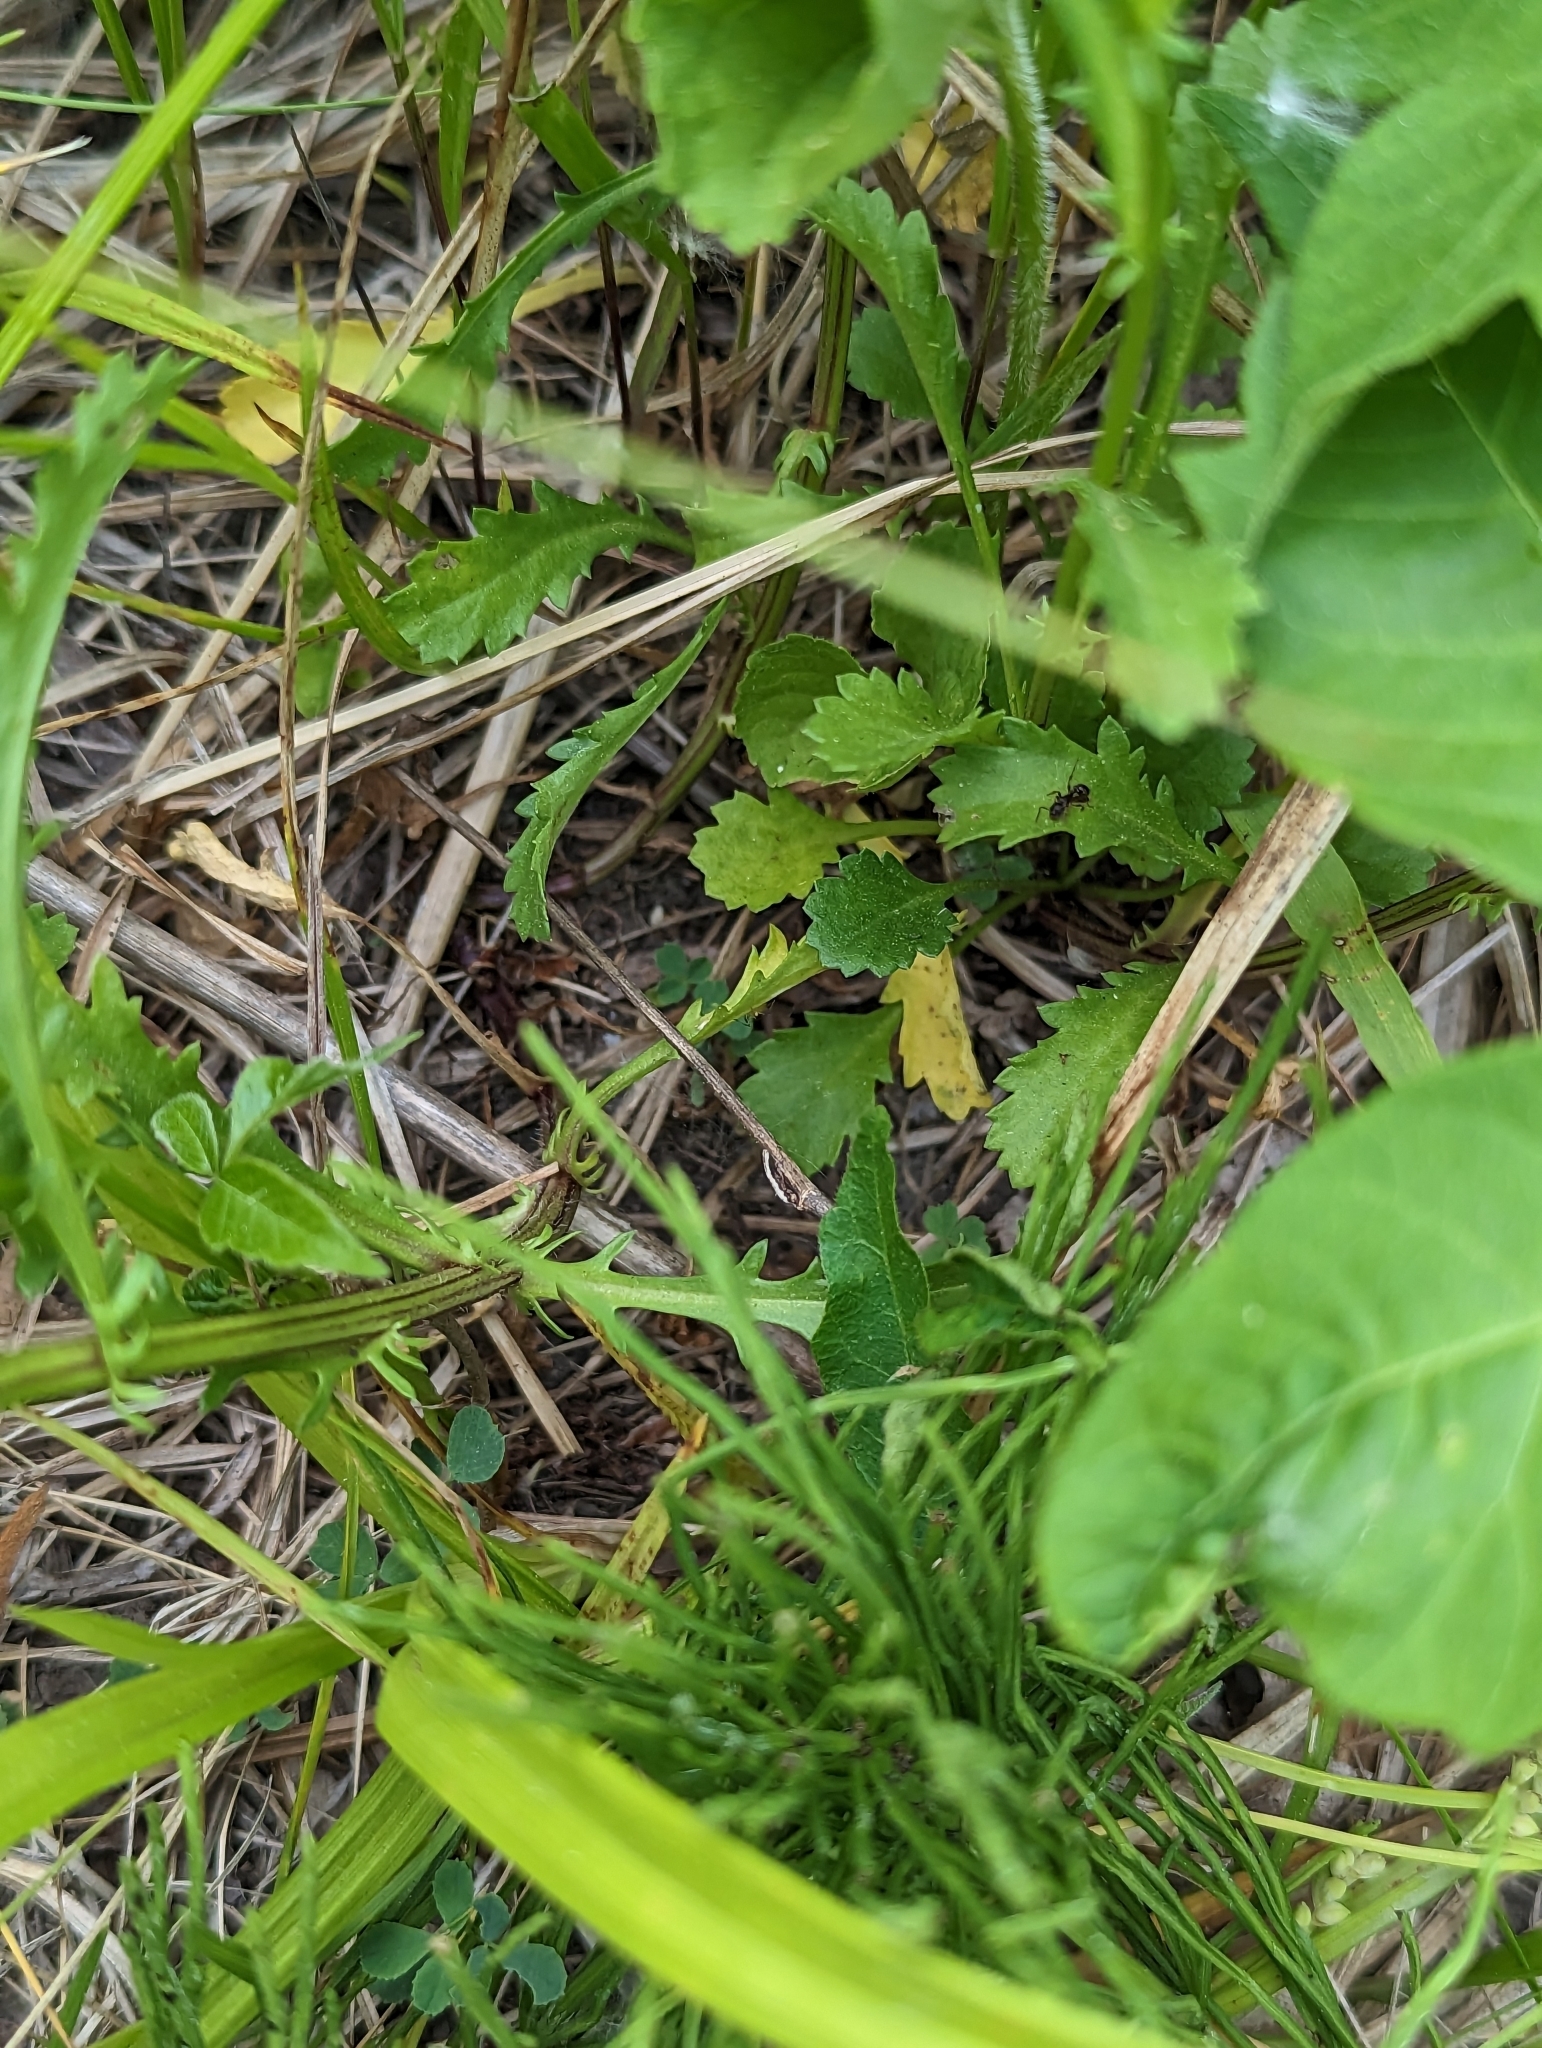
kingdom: Plantae
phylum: Tracheophyta
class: Magnoliopsida
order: Asterales
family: Asteraceae
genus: Leucanthemum
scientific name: Leucanthemum vulgare
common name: Oxeye daisy
